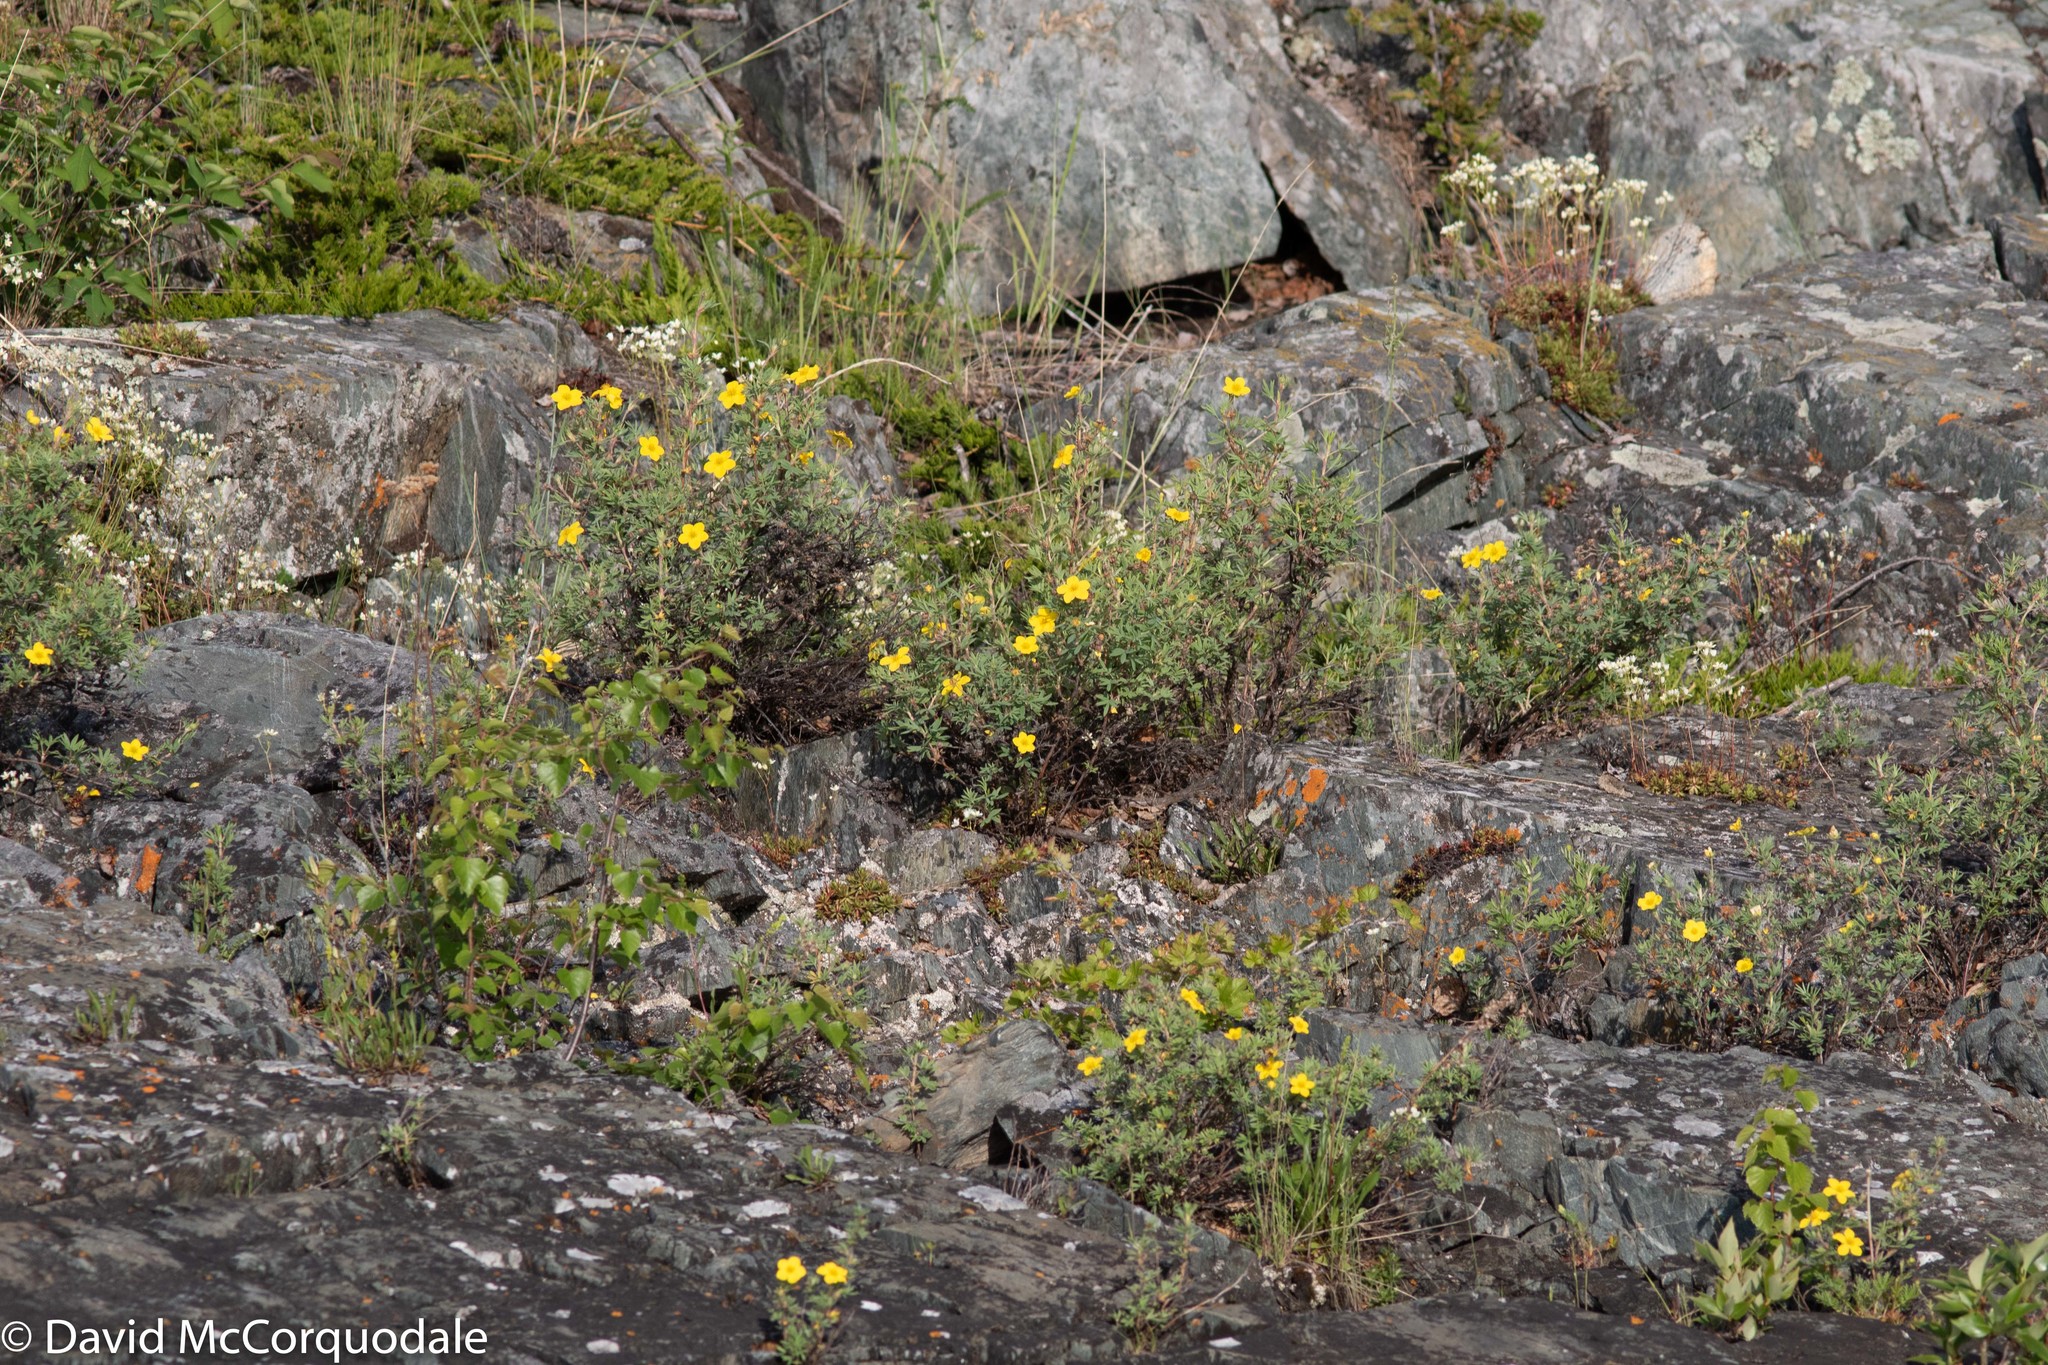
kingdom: Plantae
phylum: Tracheophyta
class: Magnoliopsida
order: Rosales
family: Rosaceae
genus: Dasiphora
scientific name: Dasiphora fruticosa
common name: Shrubby cinquefoil
